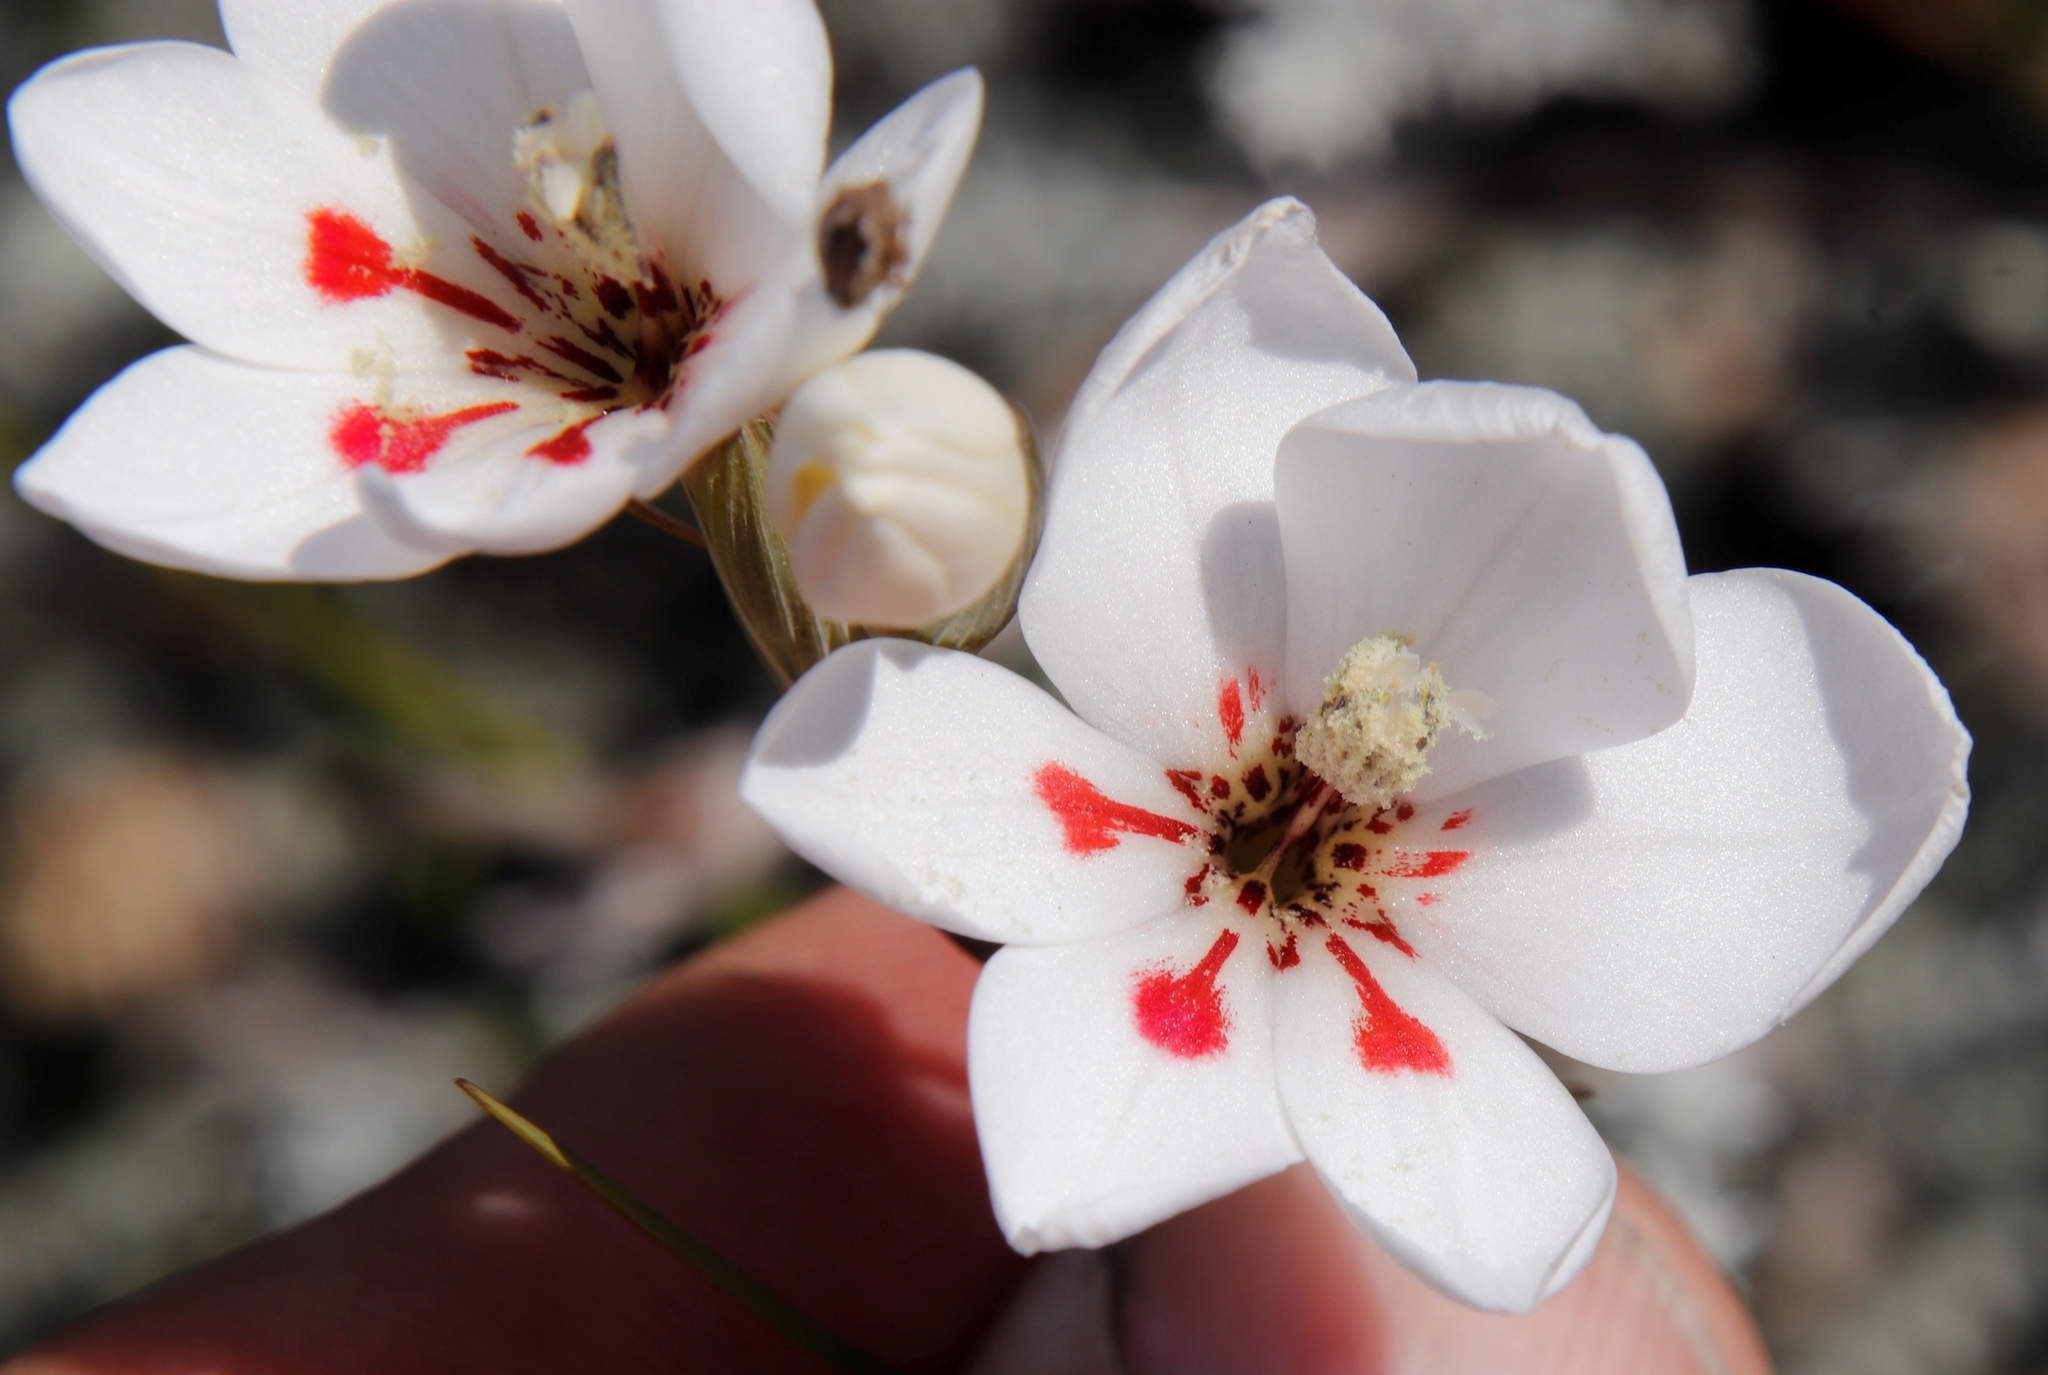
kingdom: Plantae
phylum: Tracheophyta
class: Liliopsida
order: Asparagales
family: Iridaceae
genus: Gladiolus
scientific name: Gladiolus debilis
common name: Painted-lady
